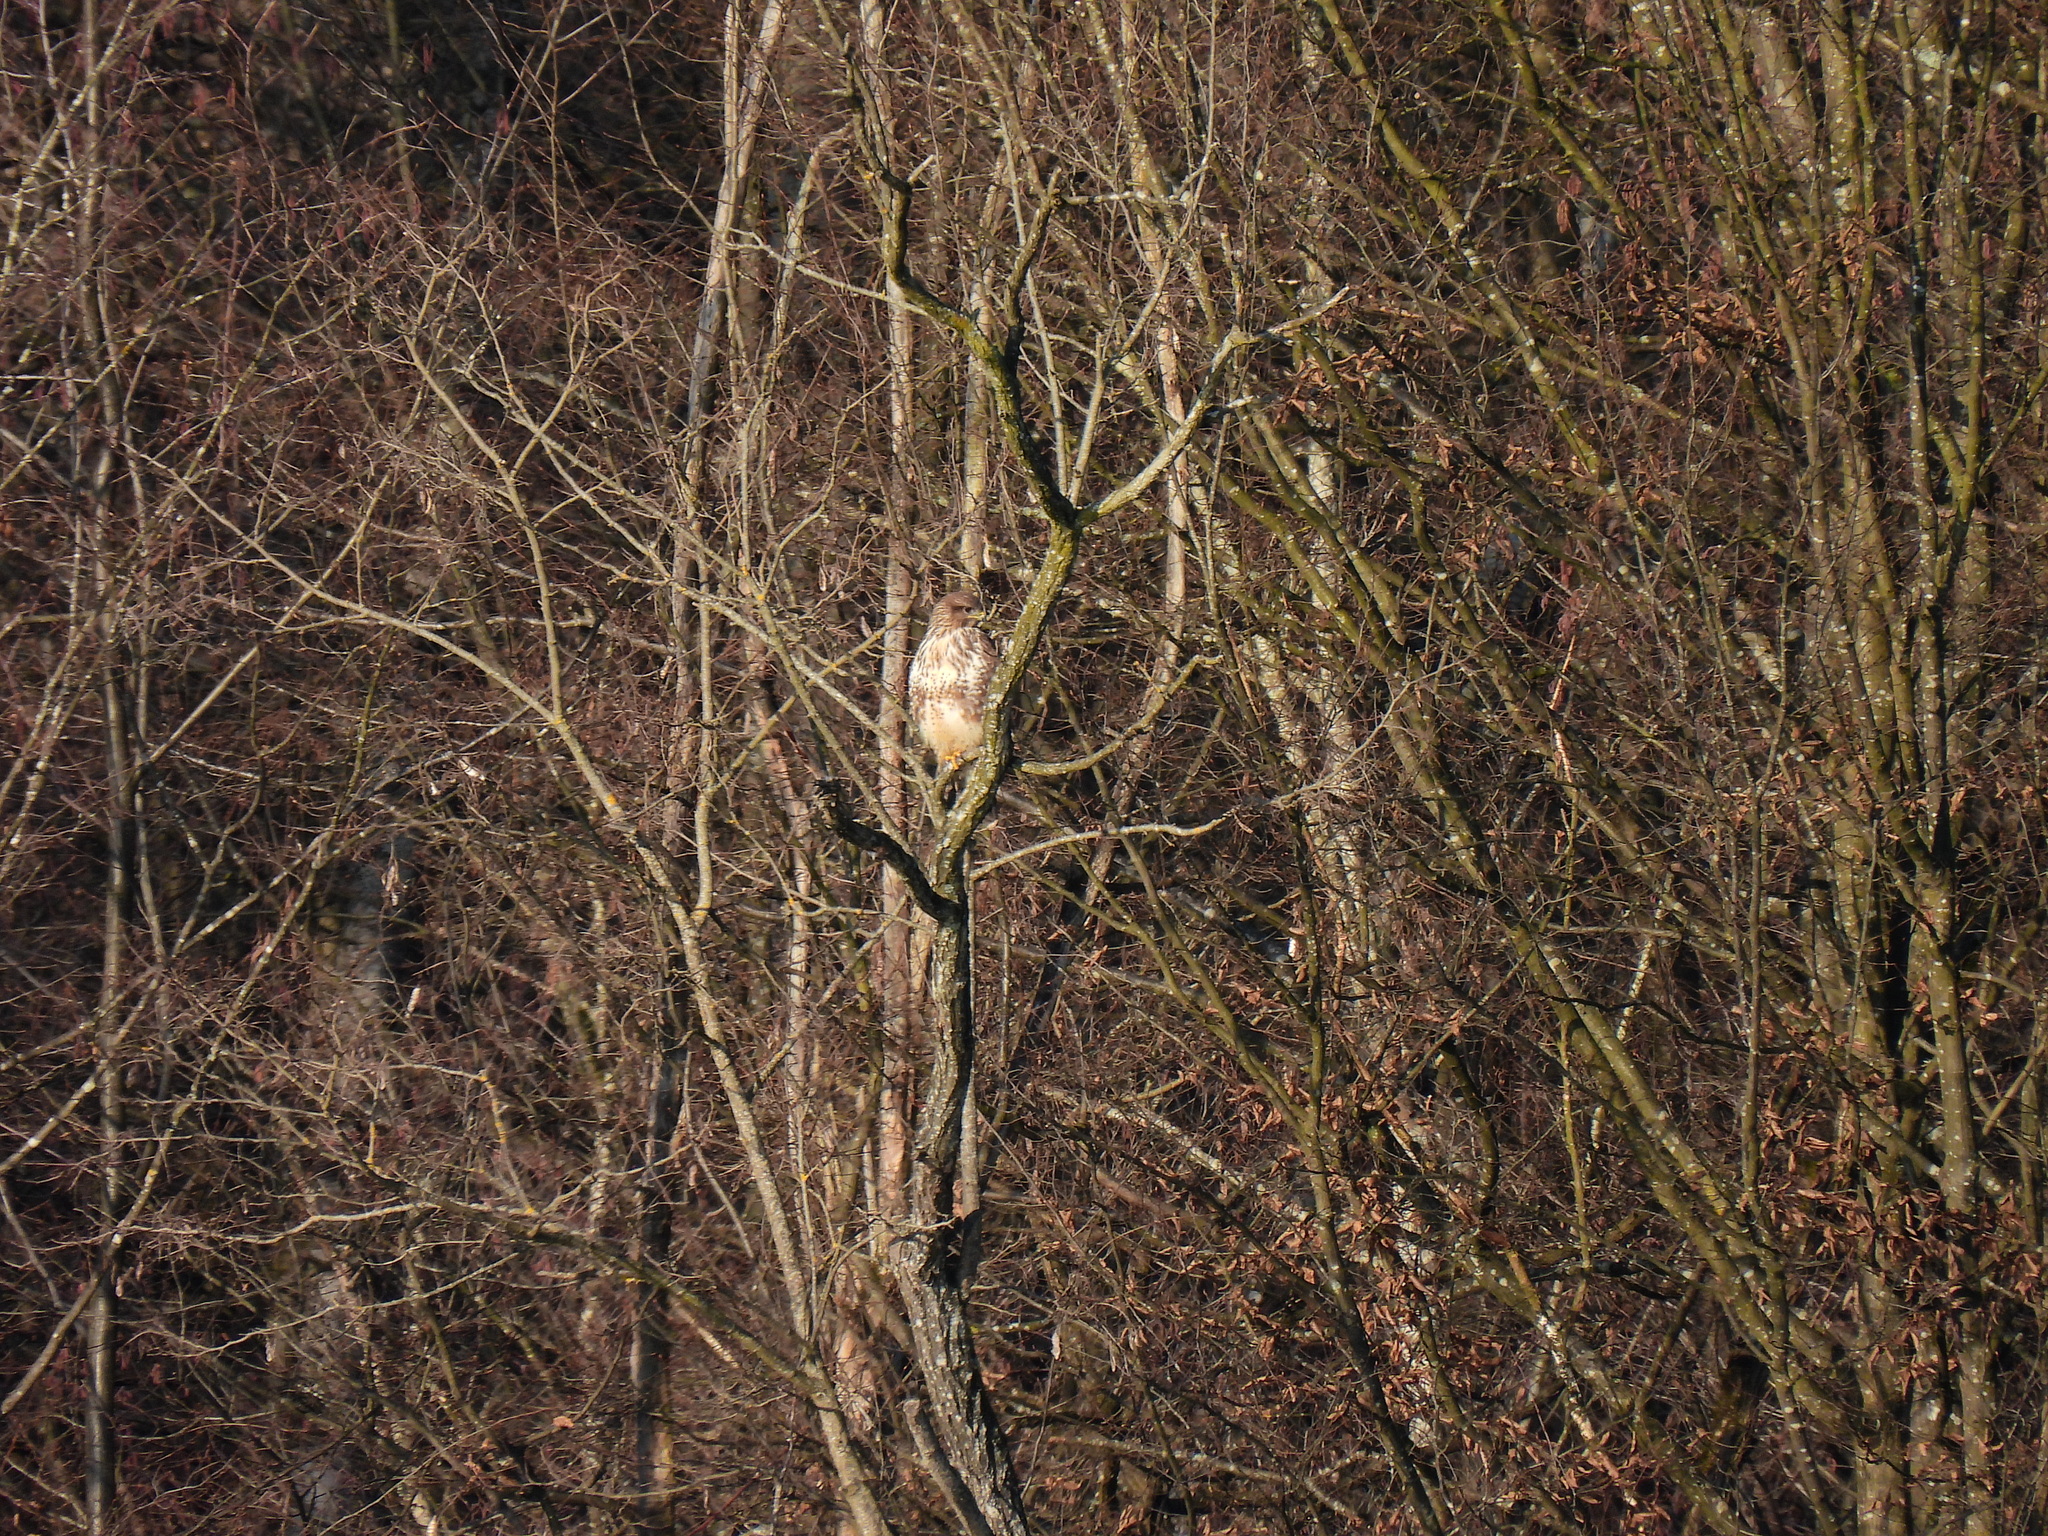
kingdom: Animalia
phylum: Chordata
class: Aves
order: Accipitriformes
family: Accipitridae
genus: Buteo
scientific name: Buteo buteo
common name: Common buzzard
